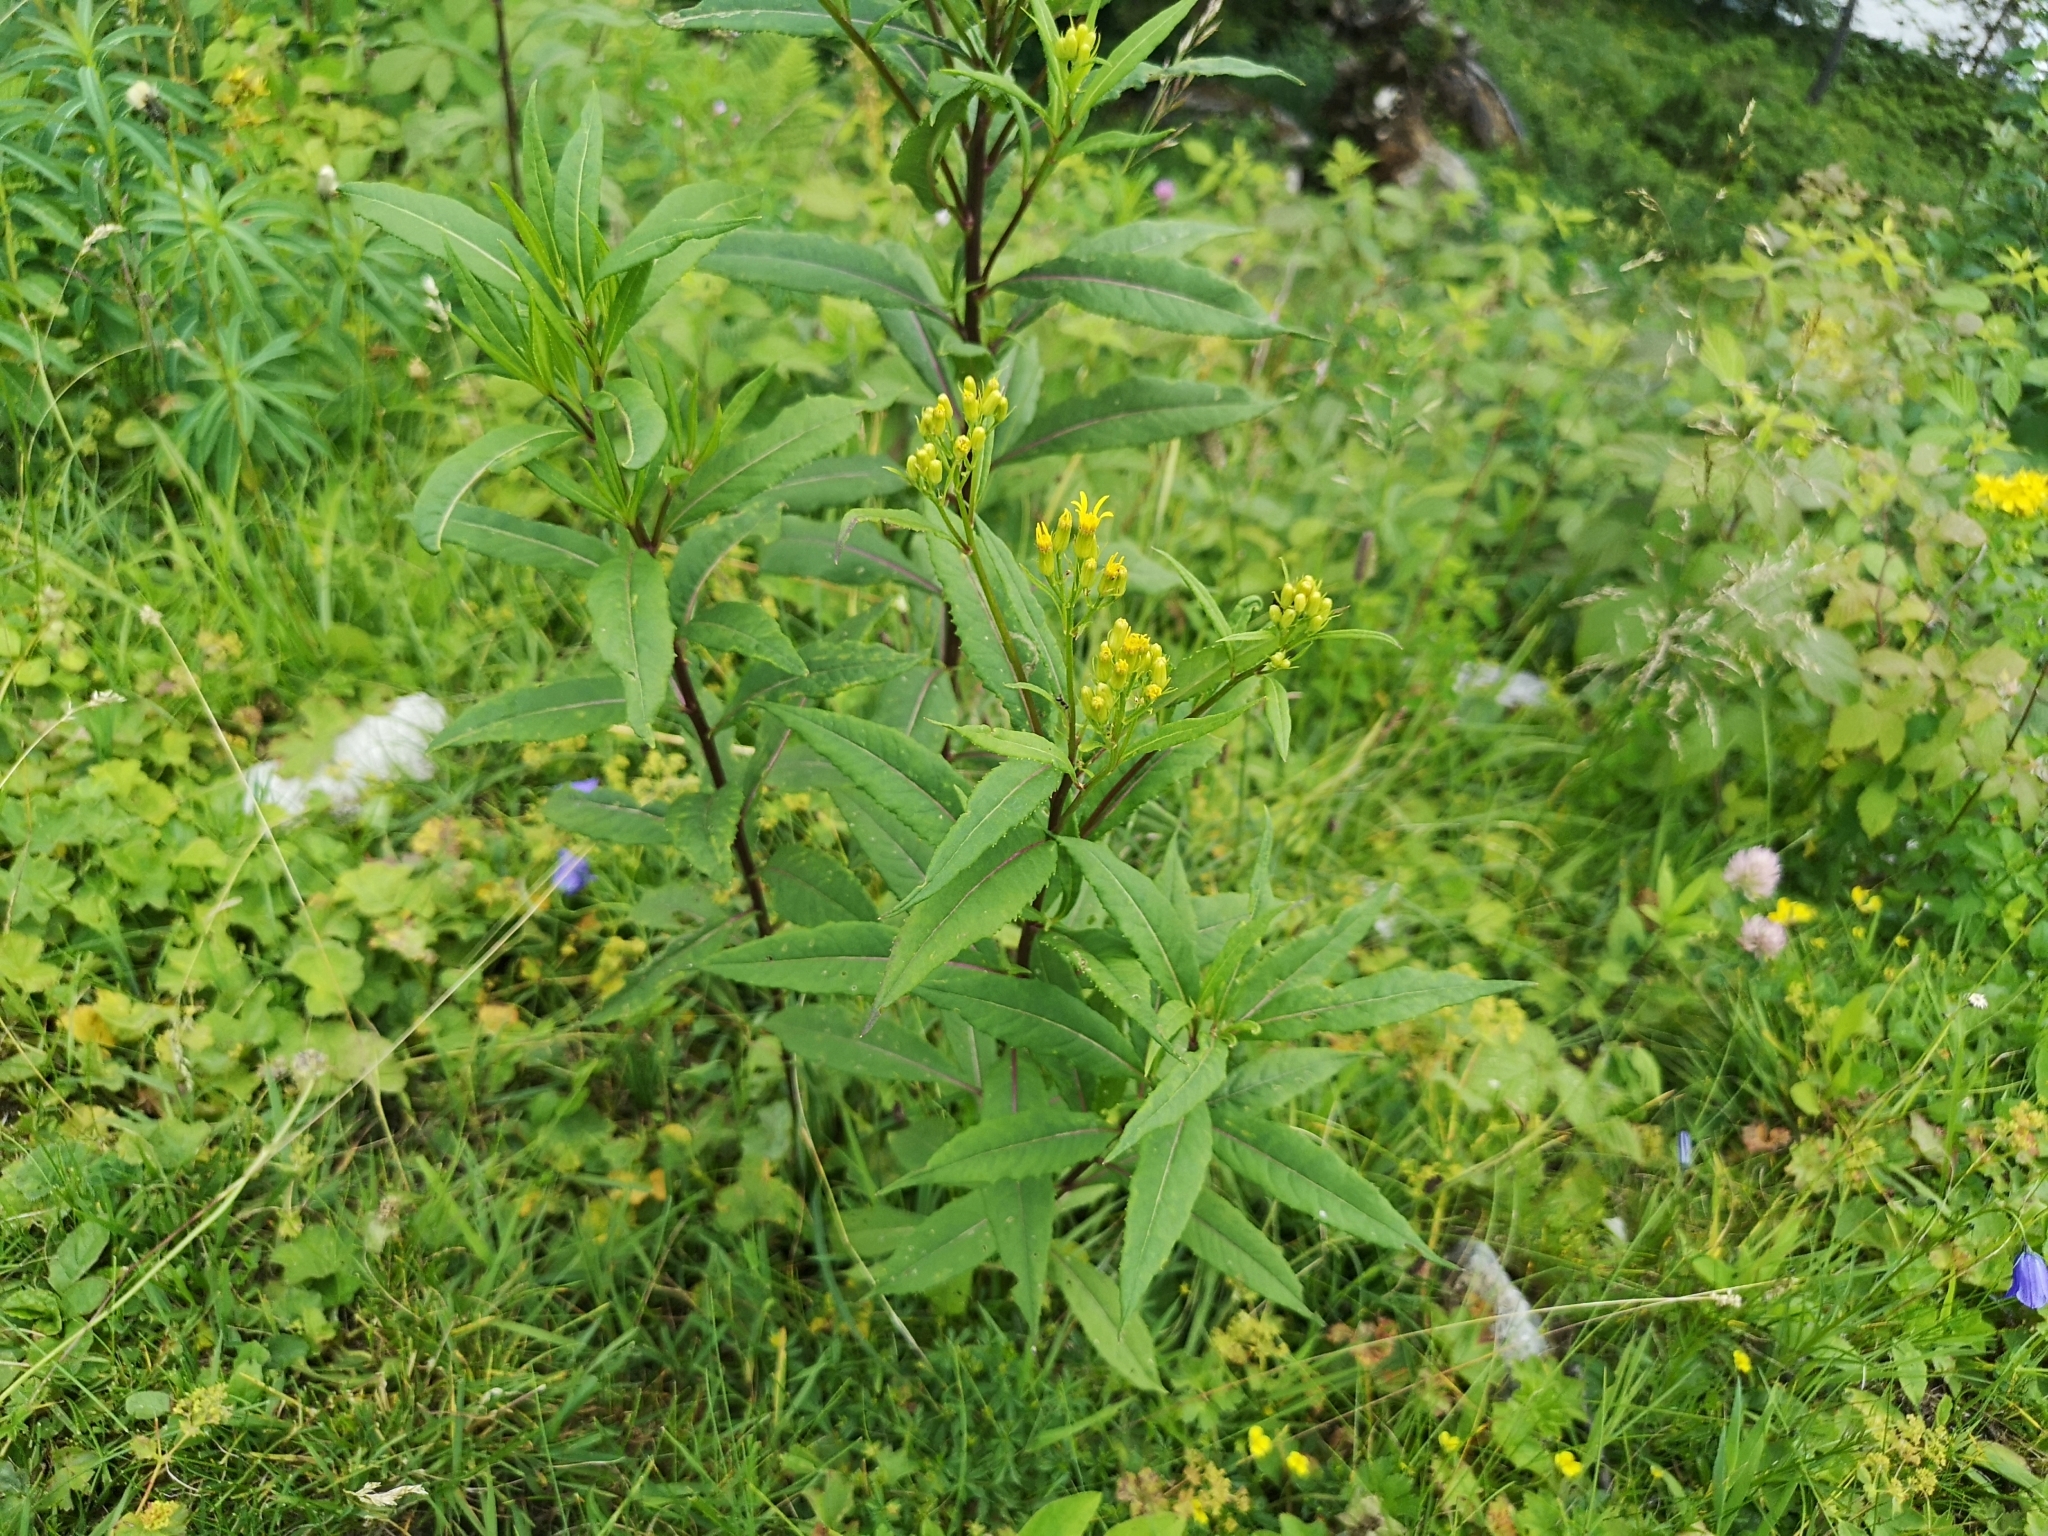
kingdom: Plantae
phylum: Tracheophyta
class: Magnoliopsida
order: Asterales
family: Asteraceae
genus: Senecio
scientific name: Senecio ovatus
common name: Wood ragwort
